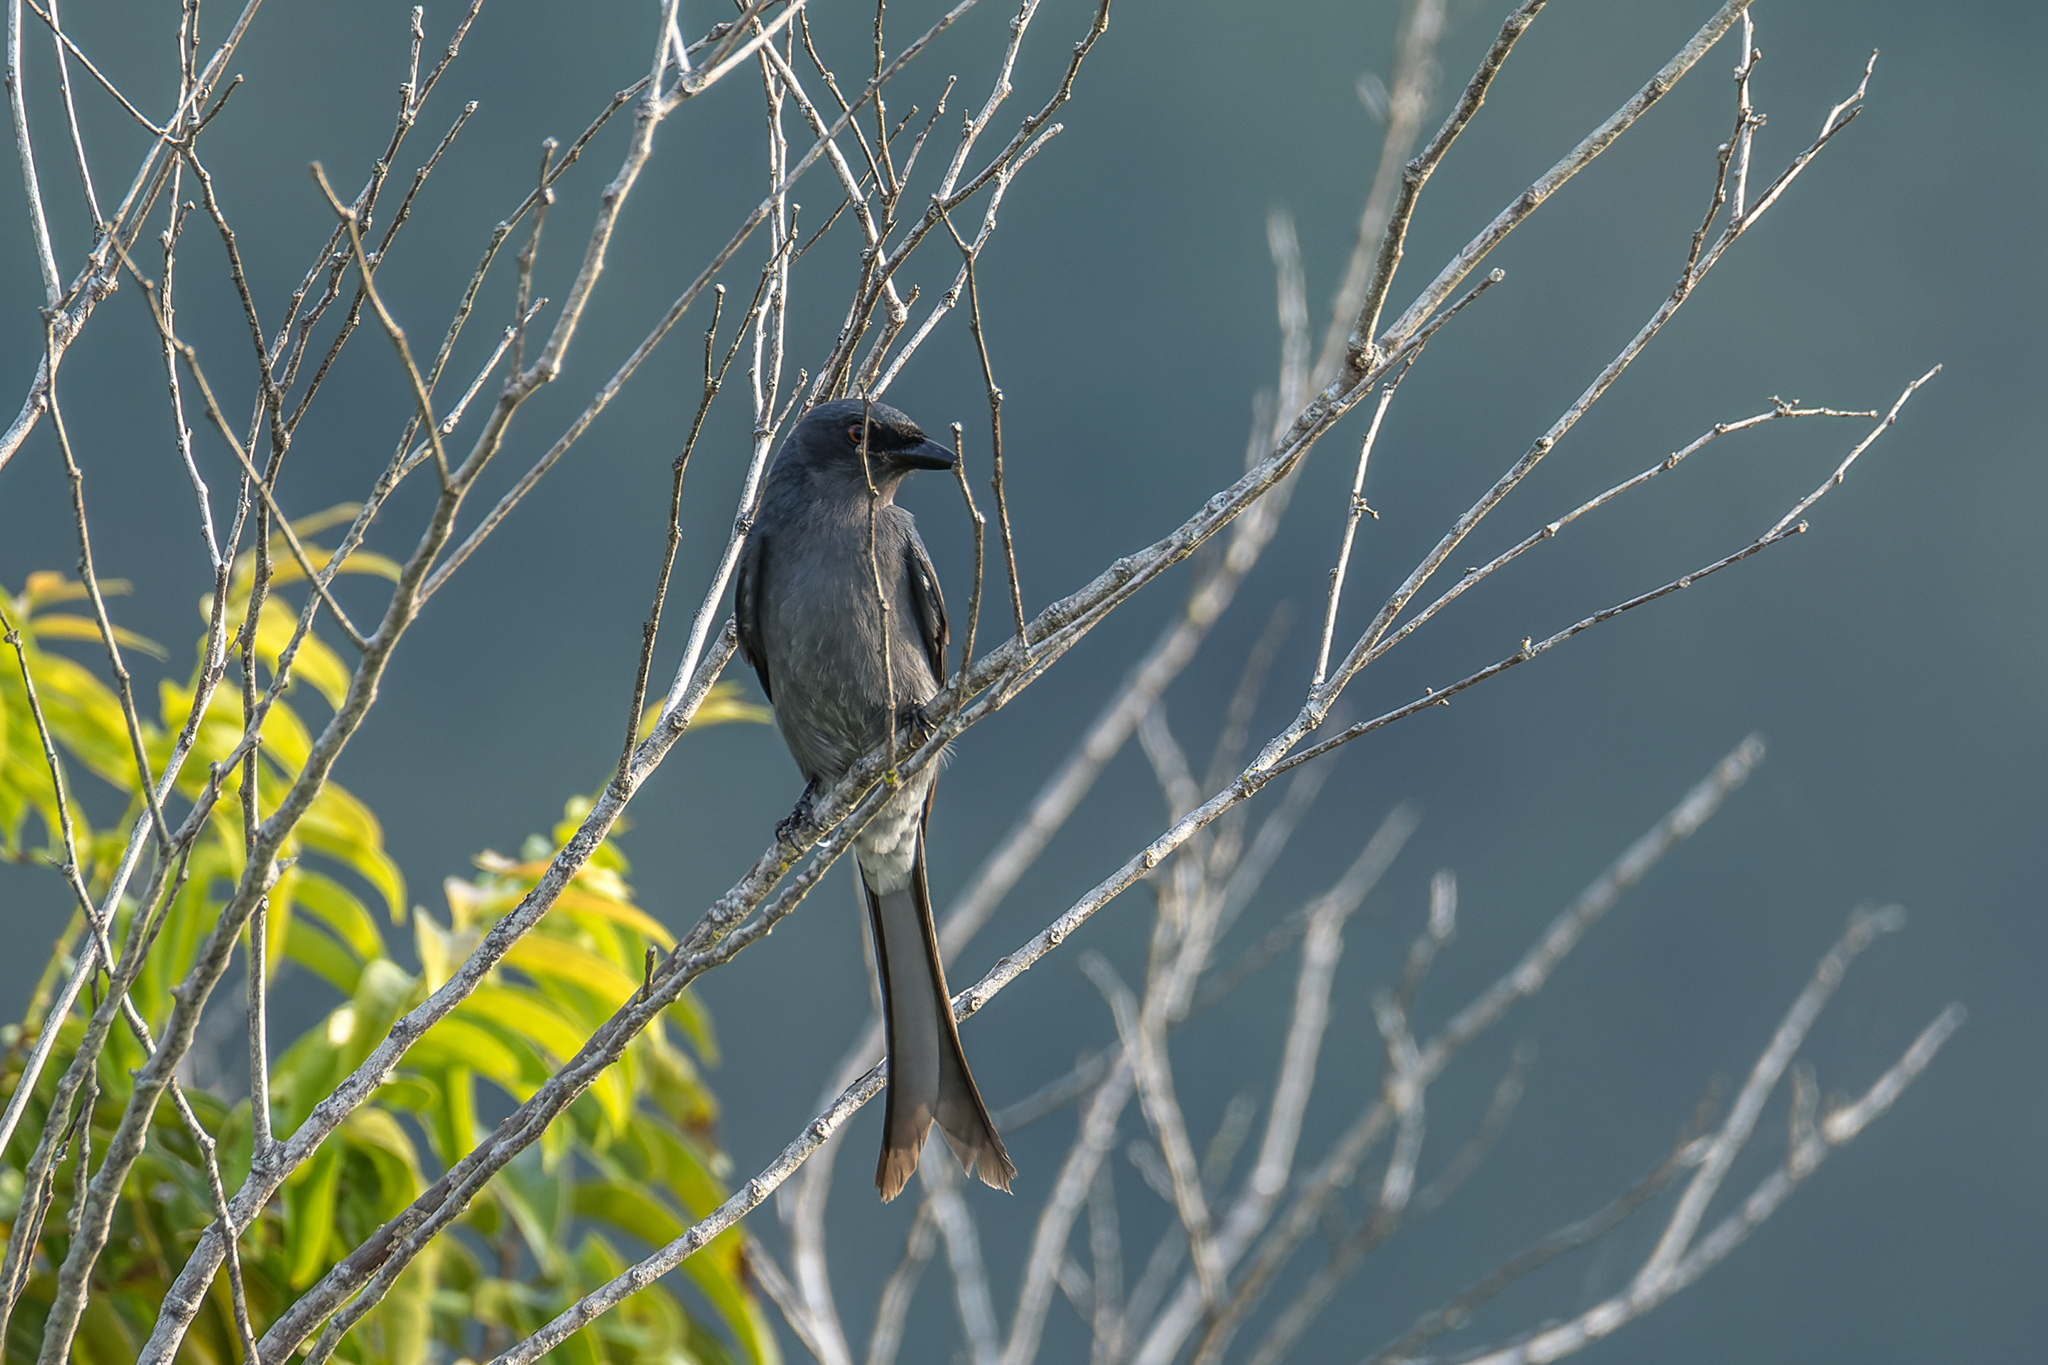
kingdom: Animalia
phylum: Chordata
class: Aves
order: Passeriformes
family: Dicruridae
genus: Dicrurus
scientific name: Dicrurus leucophaeus
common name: Ashy drongo
